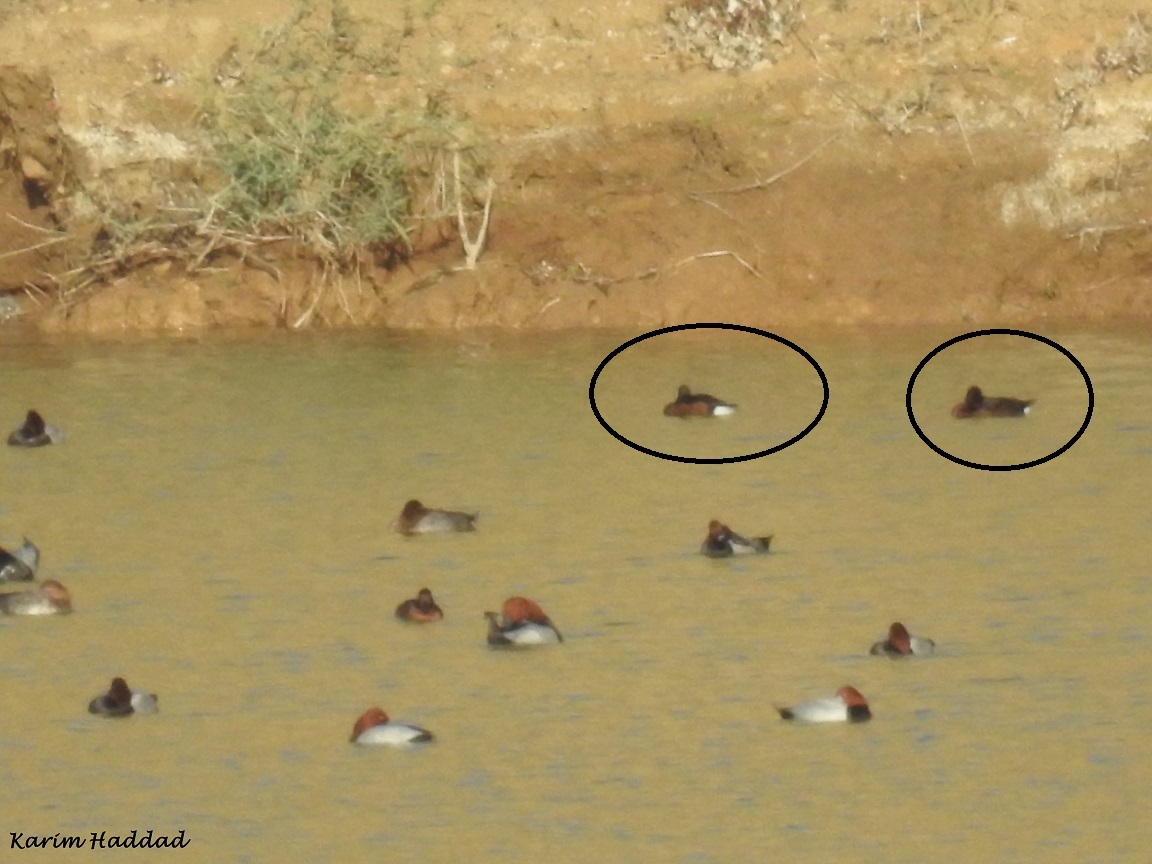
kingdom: Animalia
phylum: Chordata
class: Aves
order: Anseriformes
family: Anatidae
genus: Aythya
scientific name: Aythya nyroca
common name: Ferruginous duck
